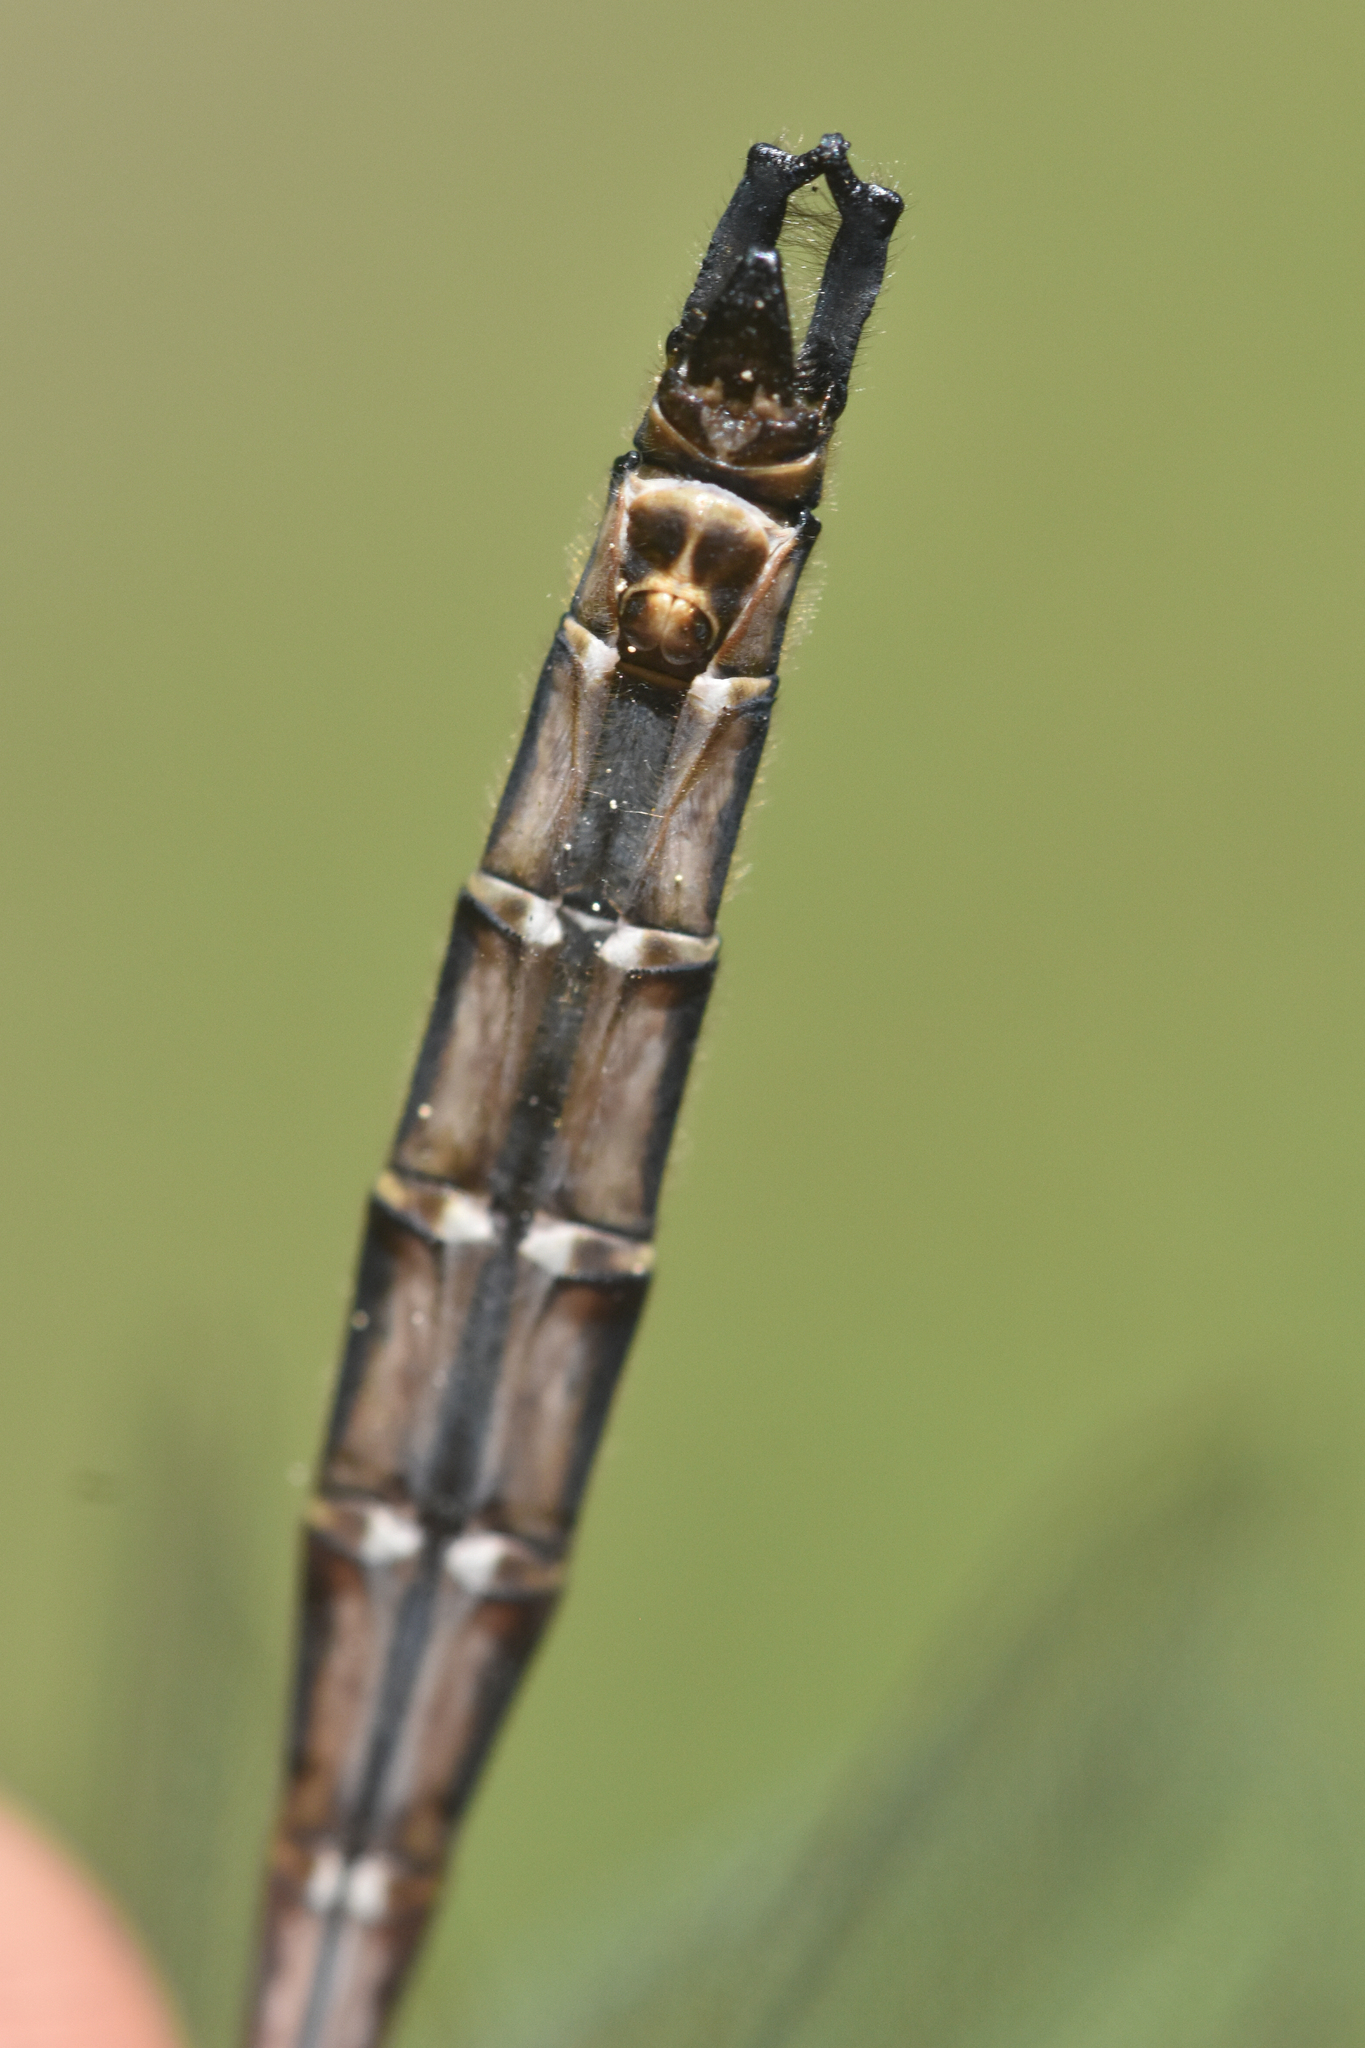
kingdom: Animalia
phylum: Arthropoda
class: Insecta
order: Odonata
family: Corduliidae
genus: Somatochlora
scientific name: Somatochlora albicincta
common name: Ringed emerald
